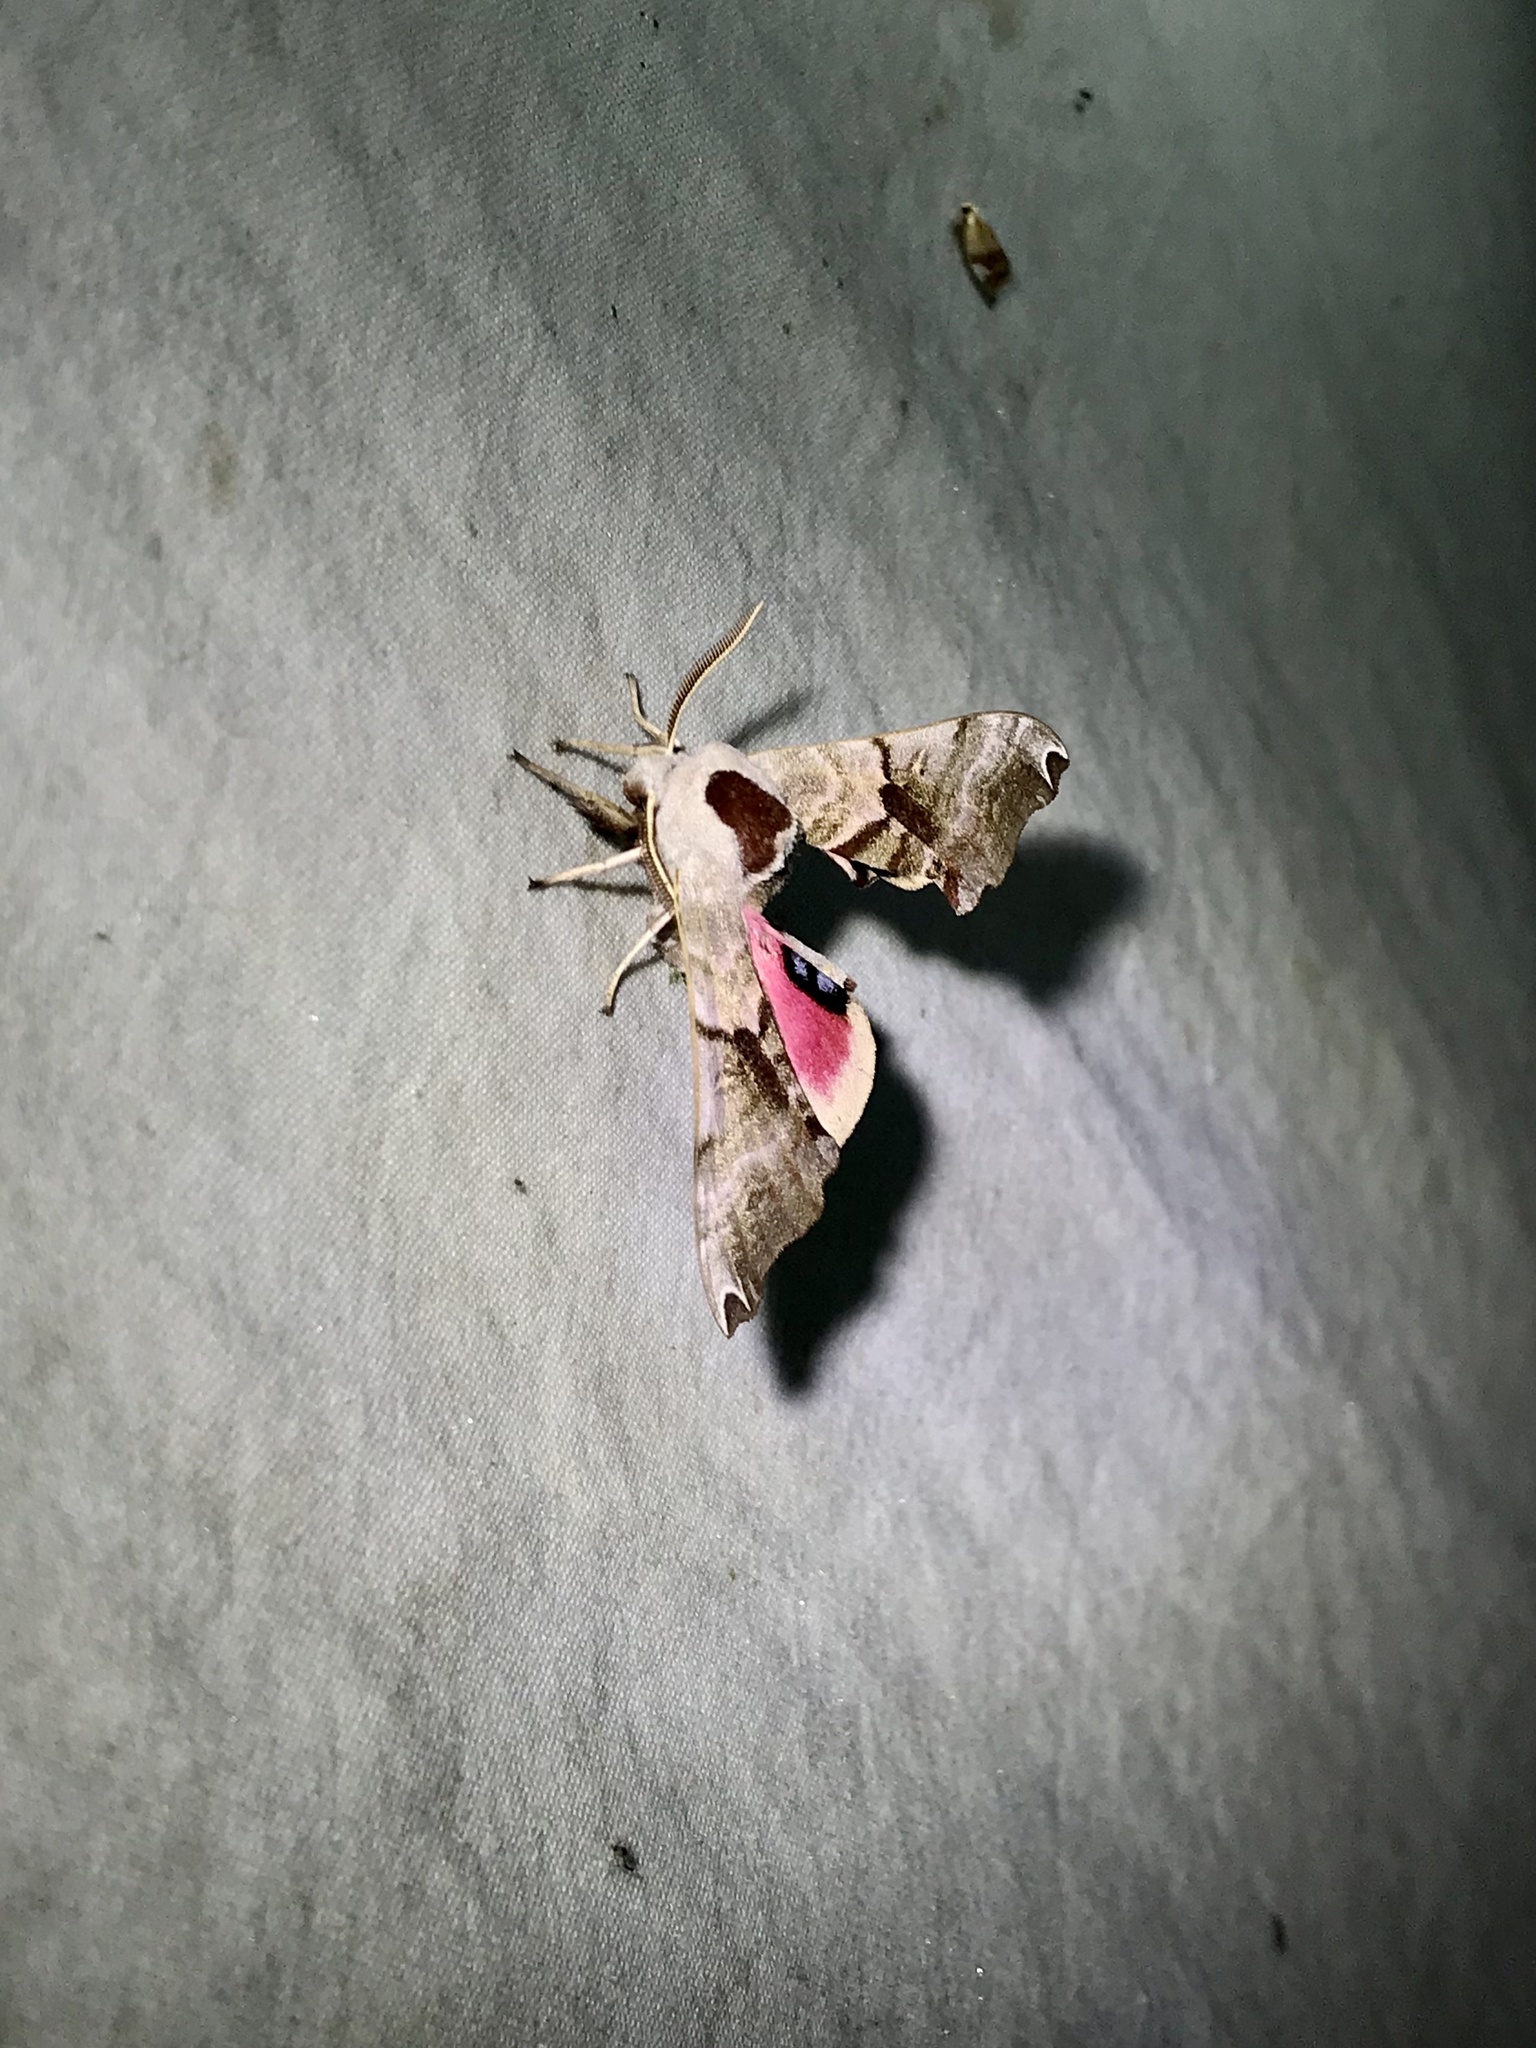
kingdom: Animalia
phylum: Arthropoda
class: Insecta
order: Lepidoptera
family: Sphingidae
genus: Smerinthus
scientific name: Smerinthus jamaicensis
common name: Twin spotted sphinx
